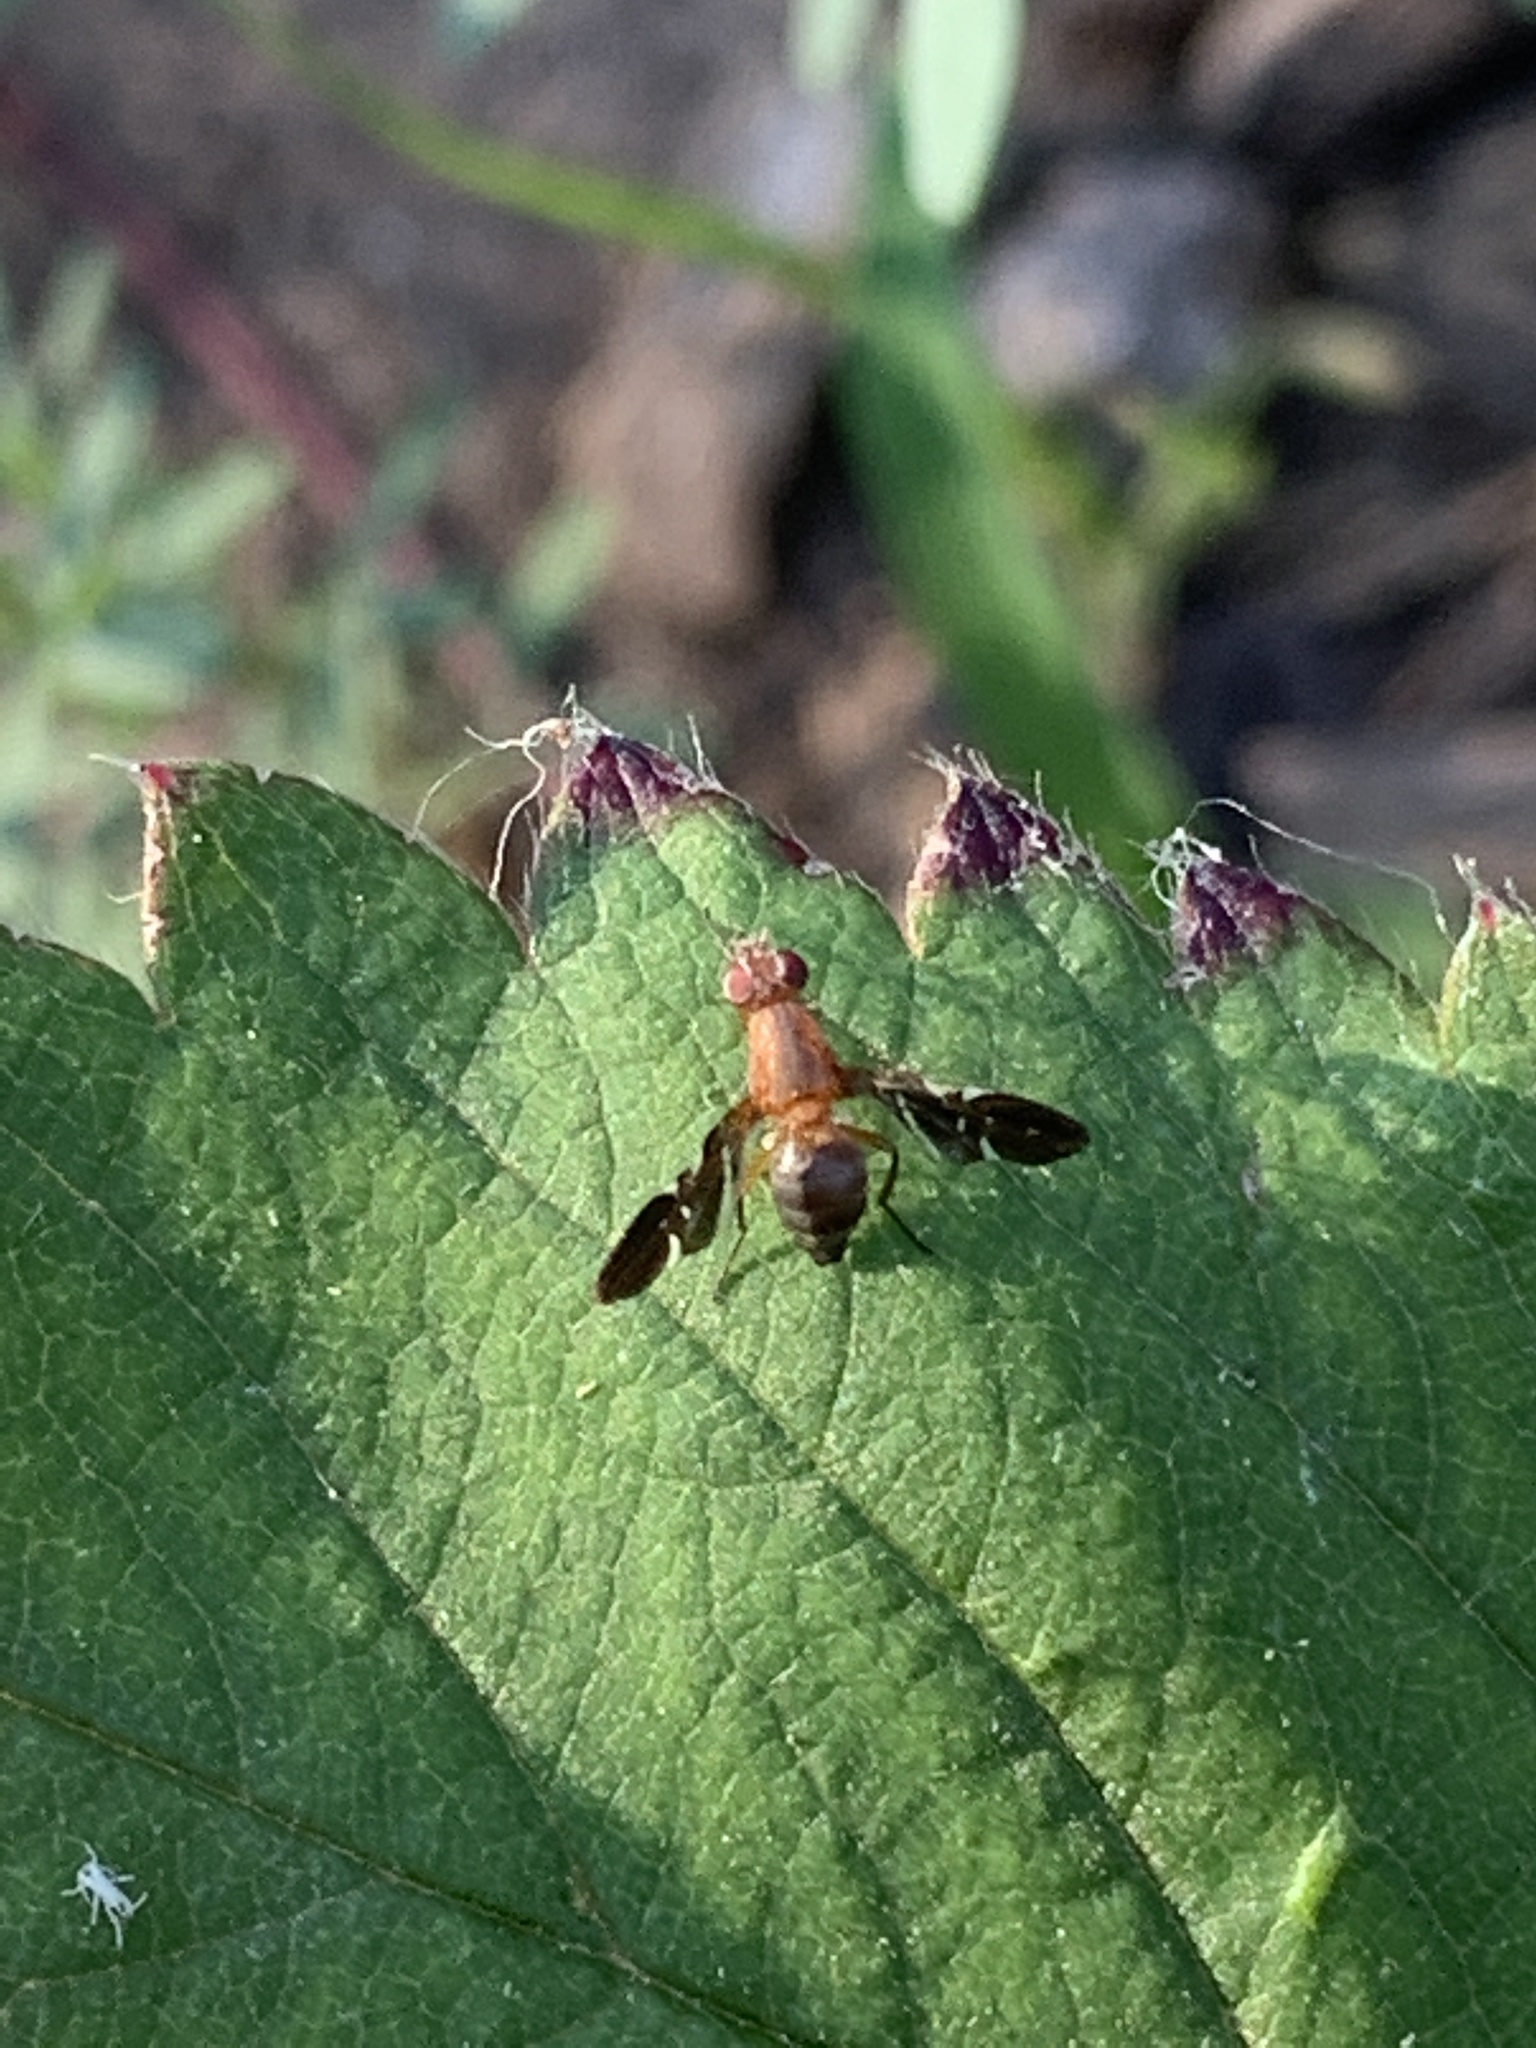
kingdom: Animalia
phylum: Arthropoda
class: Insecta
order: Diptera
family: Ulidiidae
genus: Delphinia
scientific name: Delphinia picta
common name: Common picture-winged fly
